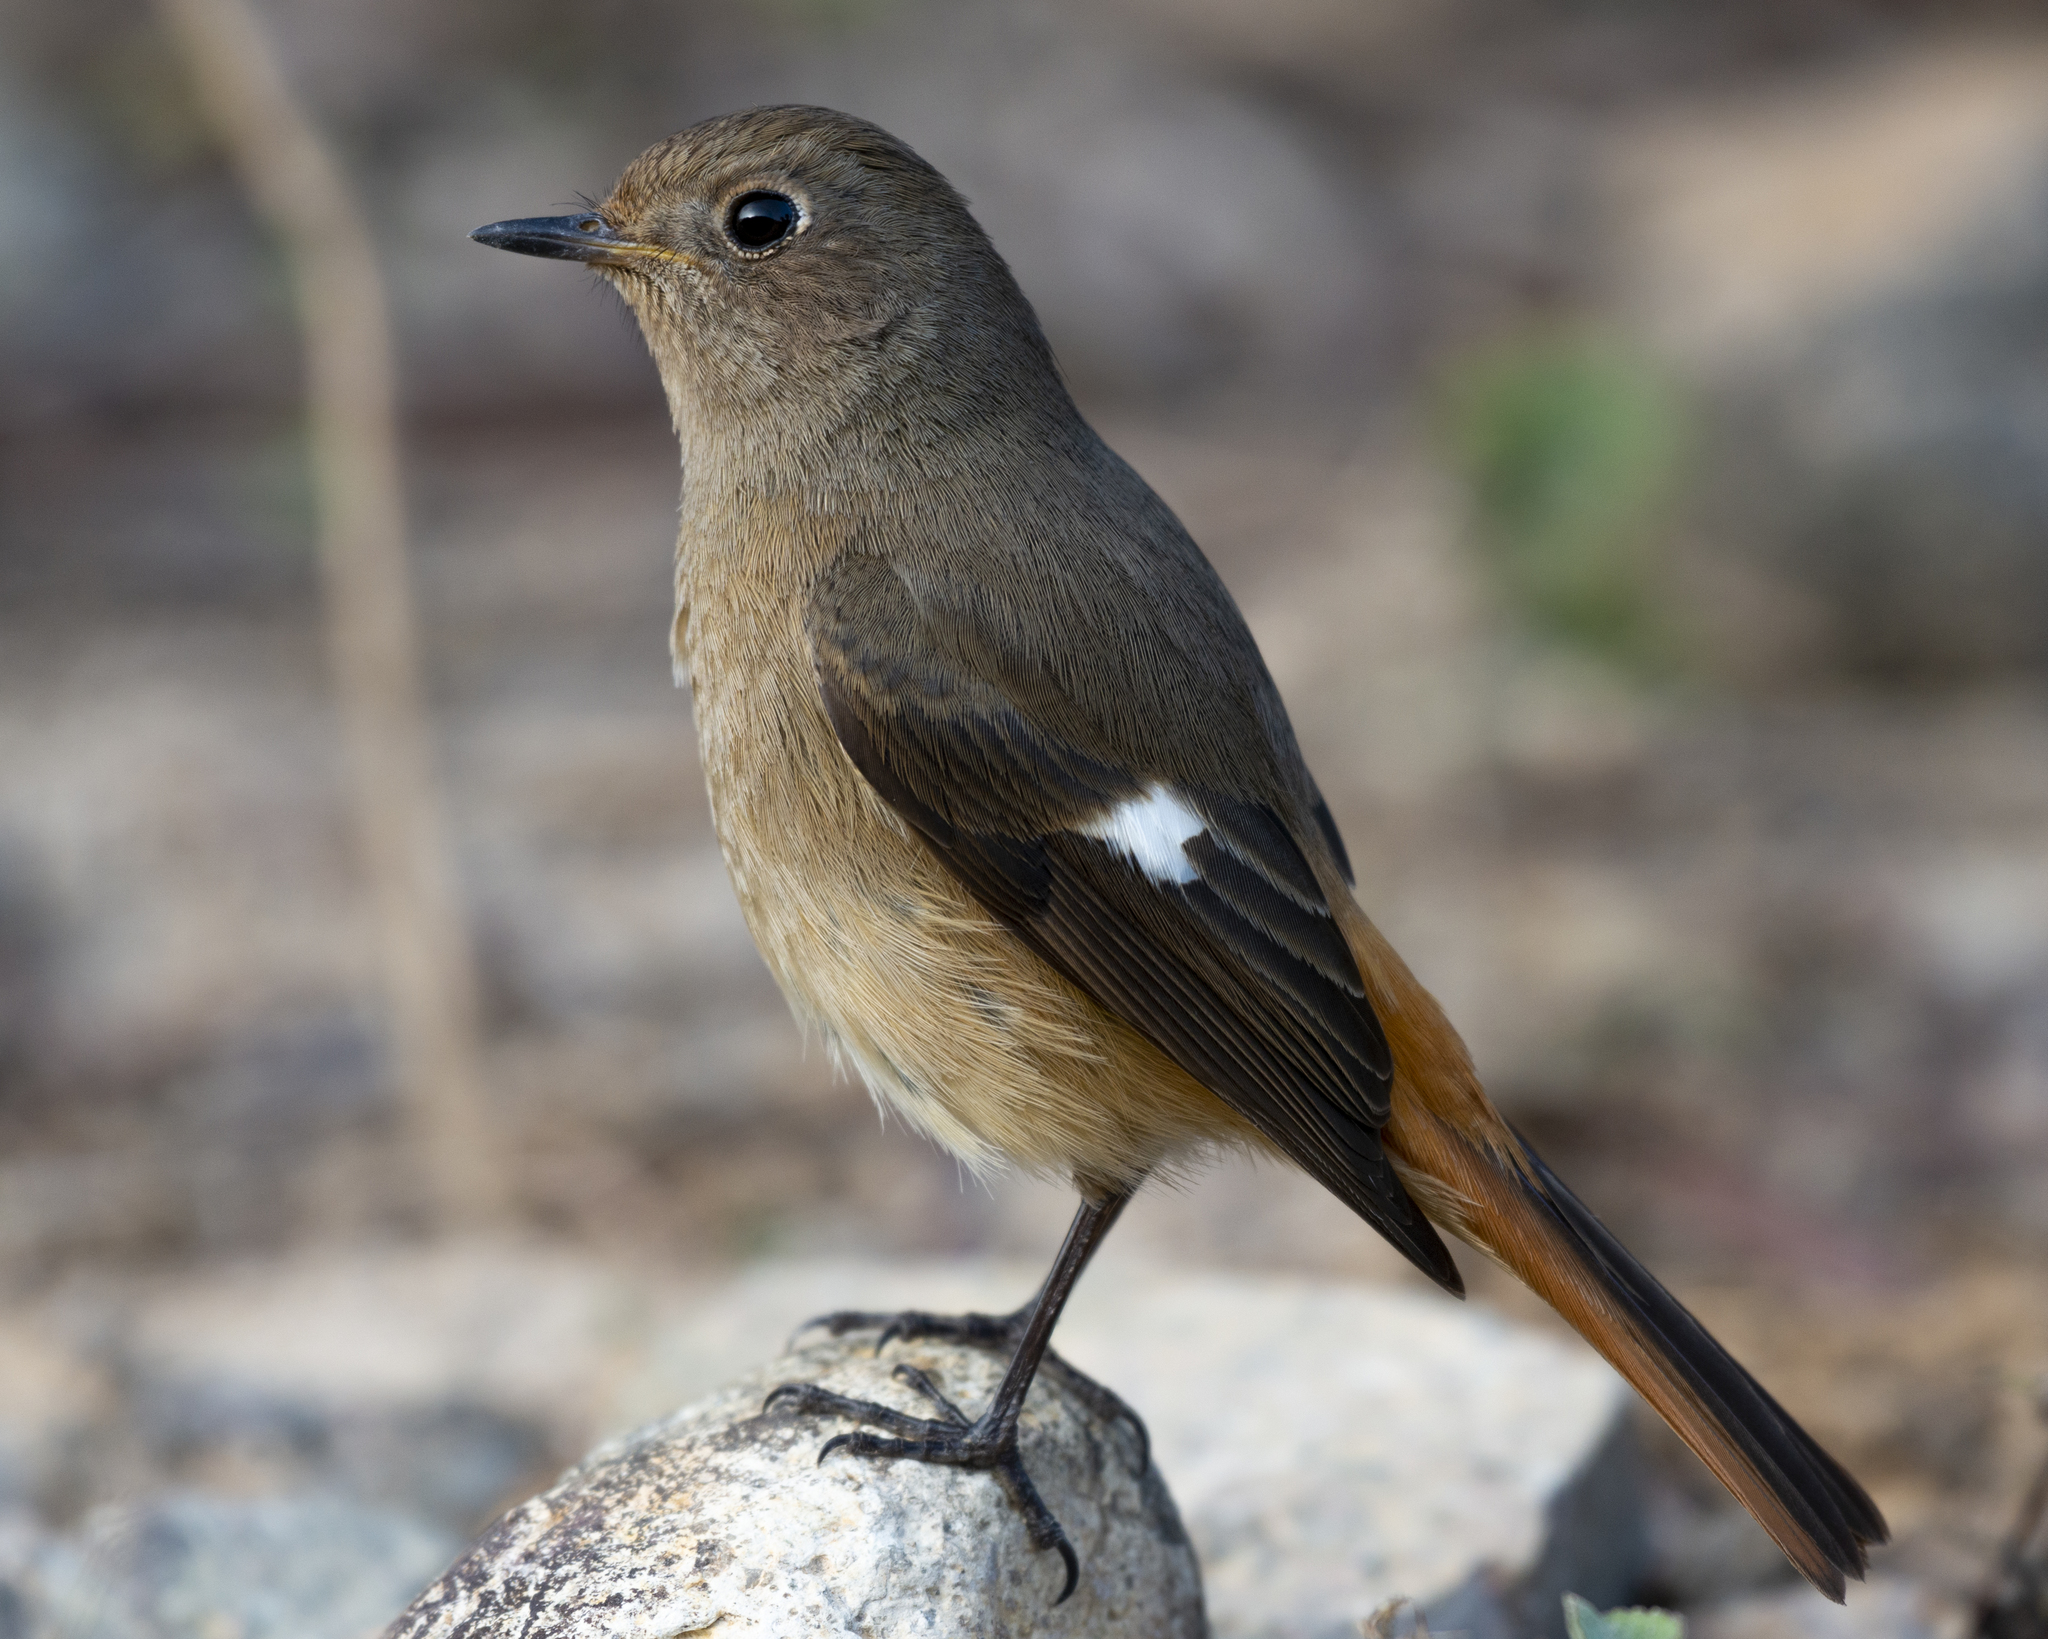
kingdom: Animalia
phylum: Chordata
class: Aves
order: Passeriformes
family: Muscicapidae
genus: Phoenicurus
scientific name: Phoenicurus auroreus
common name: Daurian redstart
